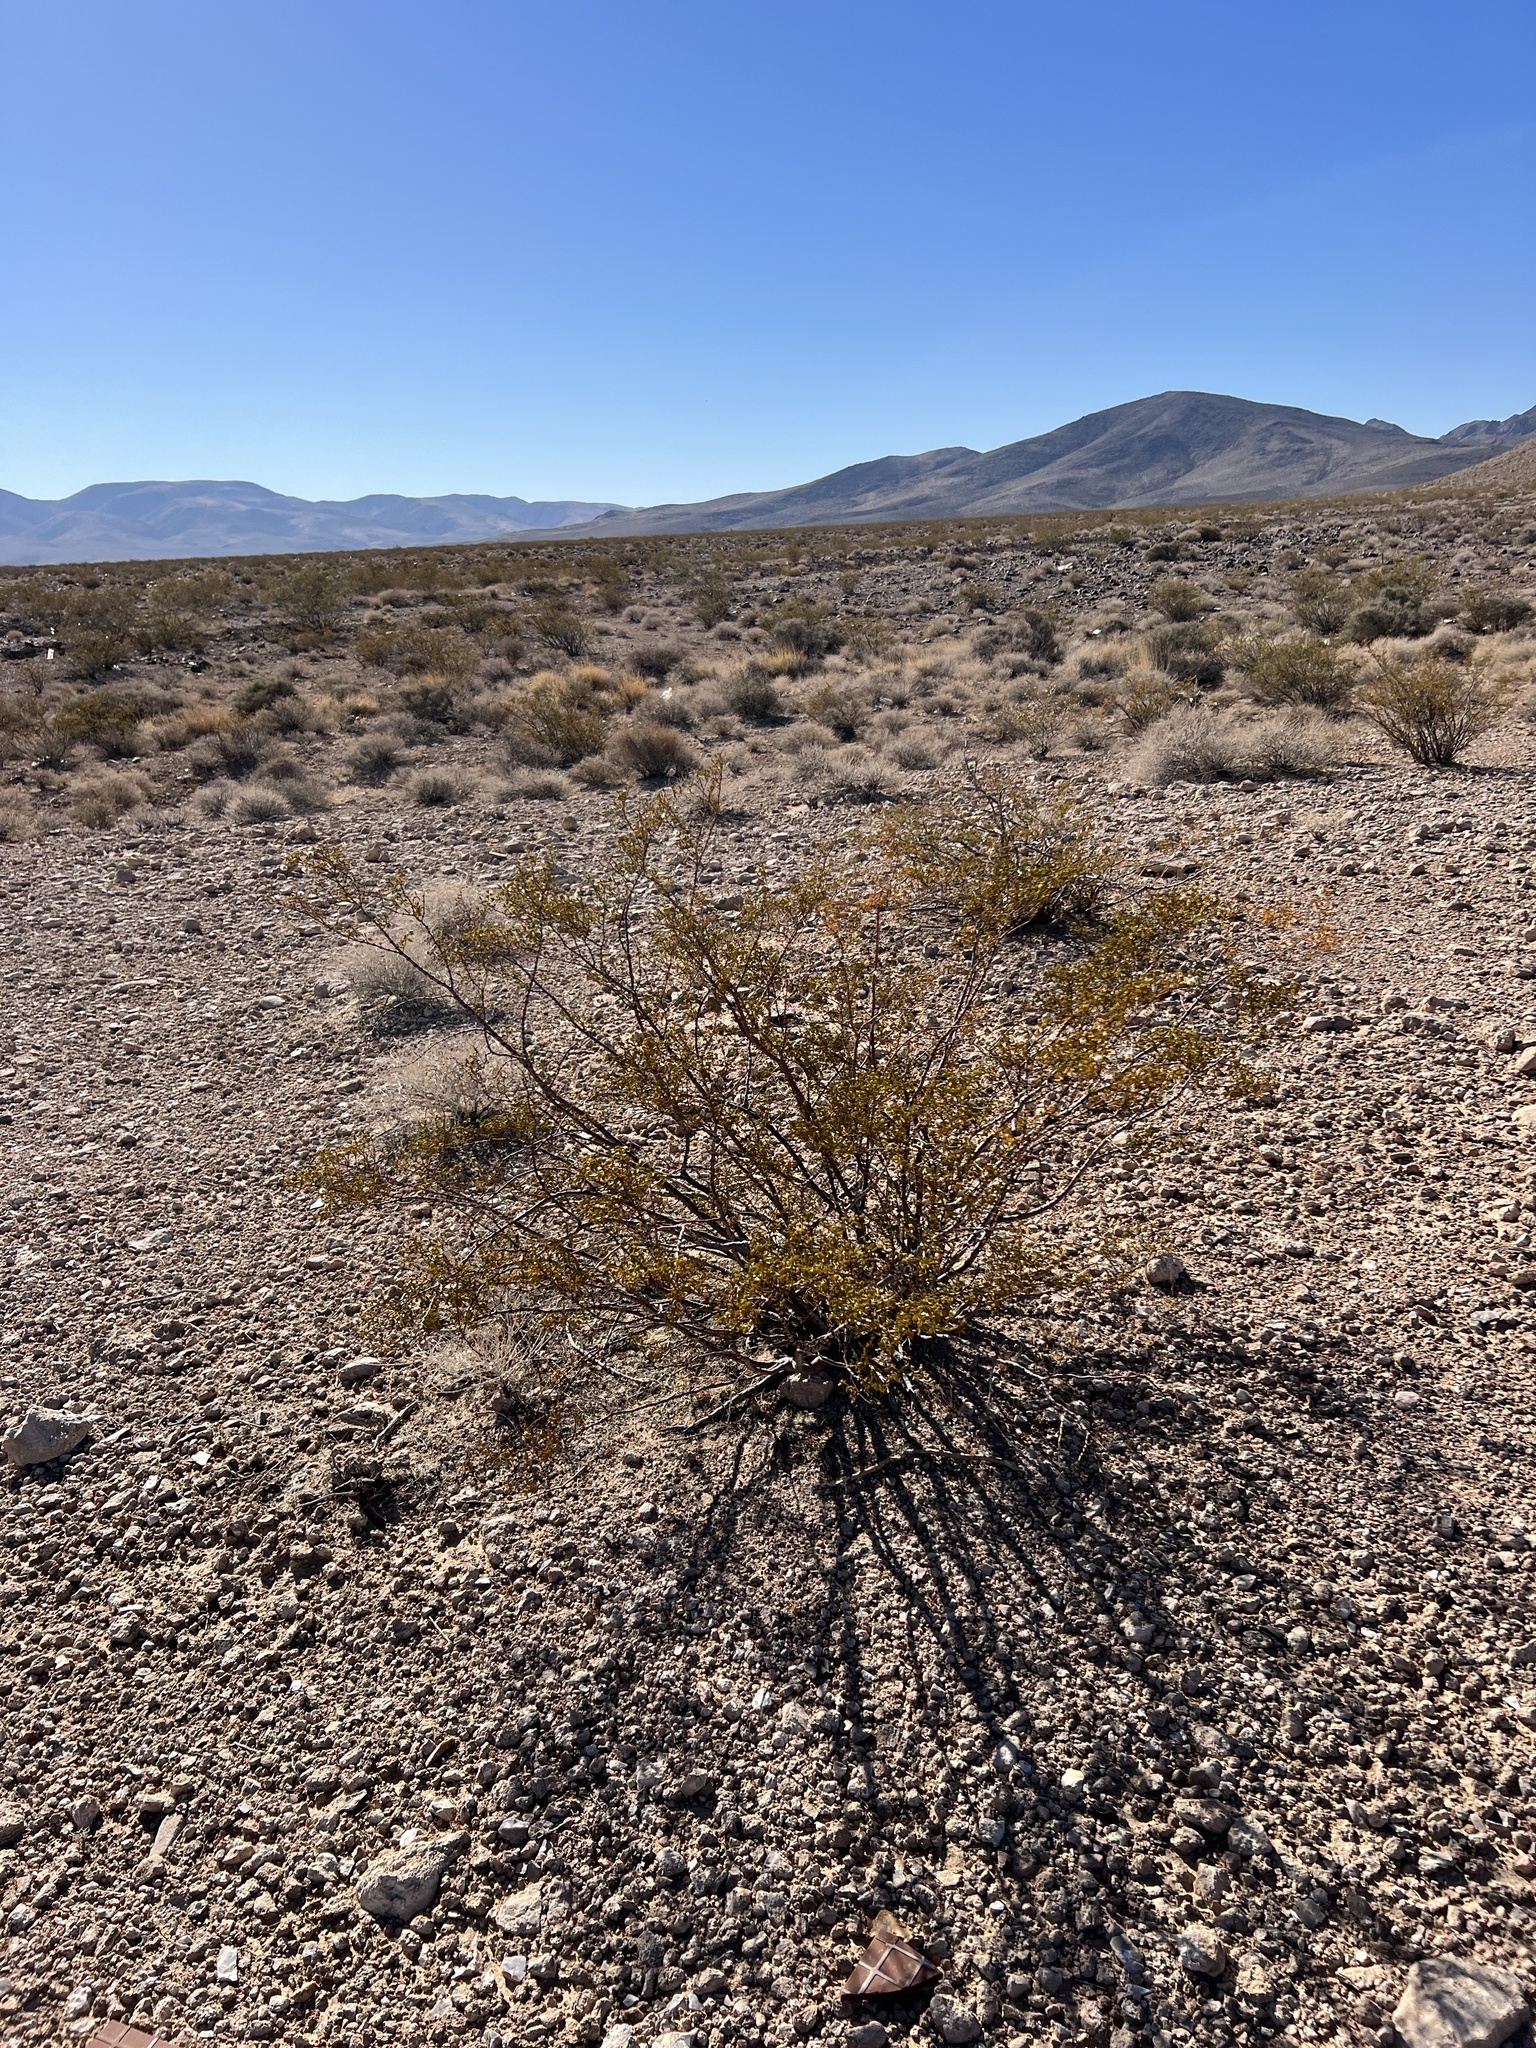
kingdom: Plantae
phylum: Tracheophyta
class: Magnoliopsida
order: Zygophyllales
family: Zygophyllaceae
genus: Larrea
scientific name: Larrea tridentata
